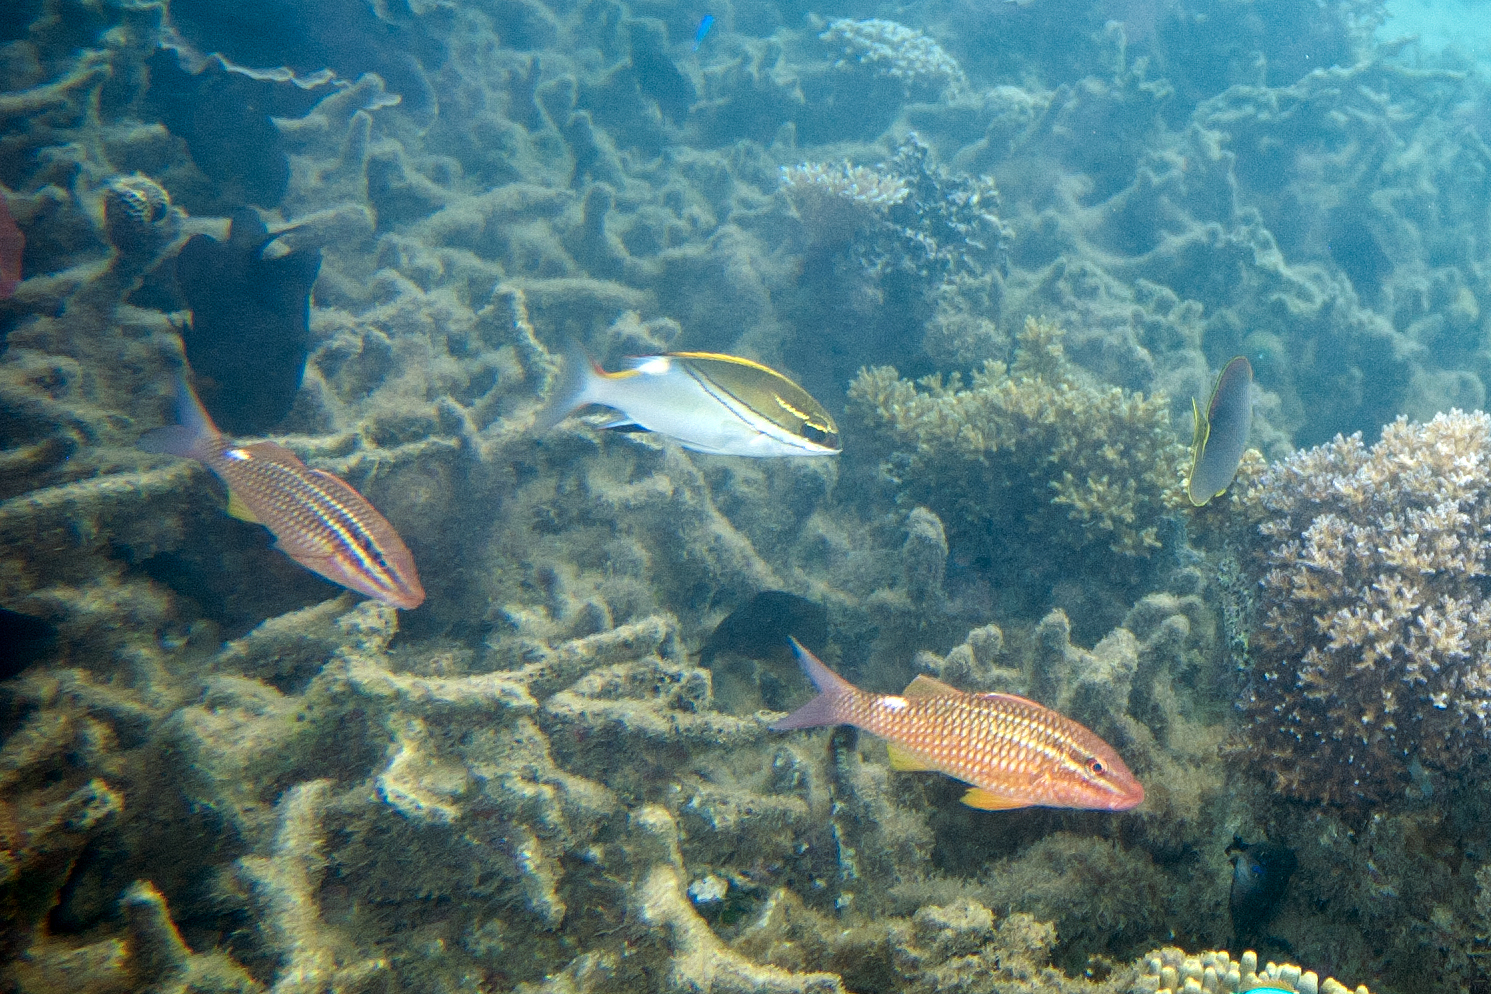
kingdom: Animalia
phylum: Chordata
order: Perciformes
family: Mullidae
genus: Parupeneus
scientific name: Parupeneus ciliatus
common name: White-lined goatfish
